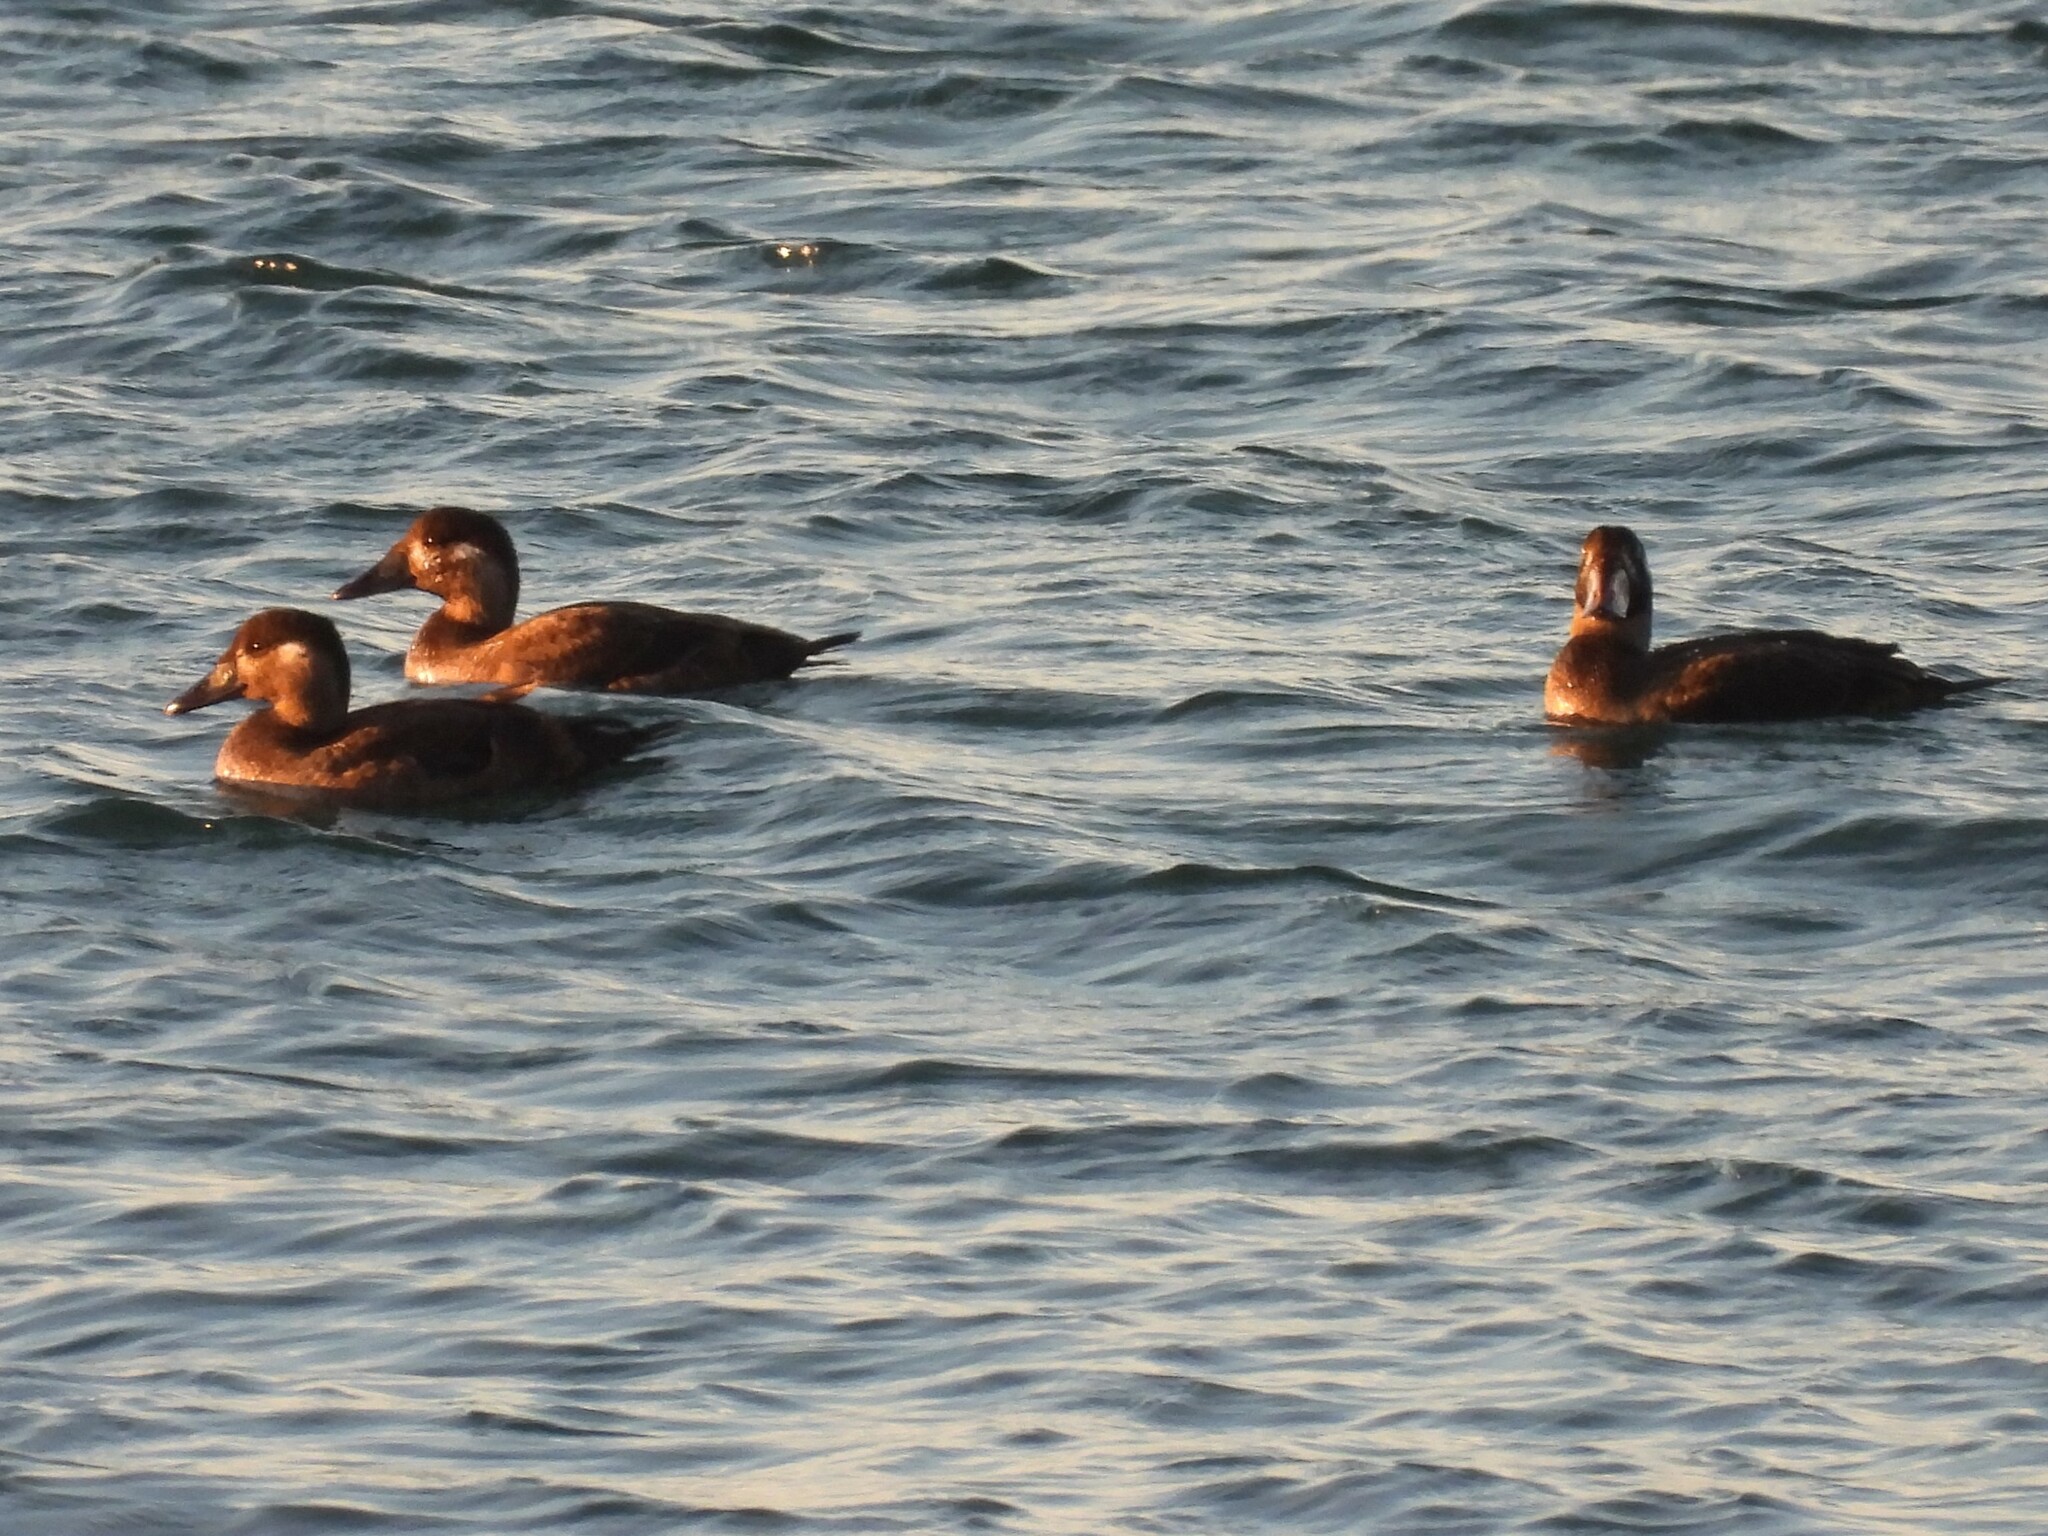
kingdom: Animalia
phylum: Chordata
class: Aves
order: Anseriformes
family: Anatidae
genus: Melanitta
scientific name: Melanitta perspicillata
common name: Surf scoter
